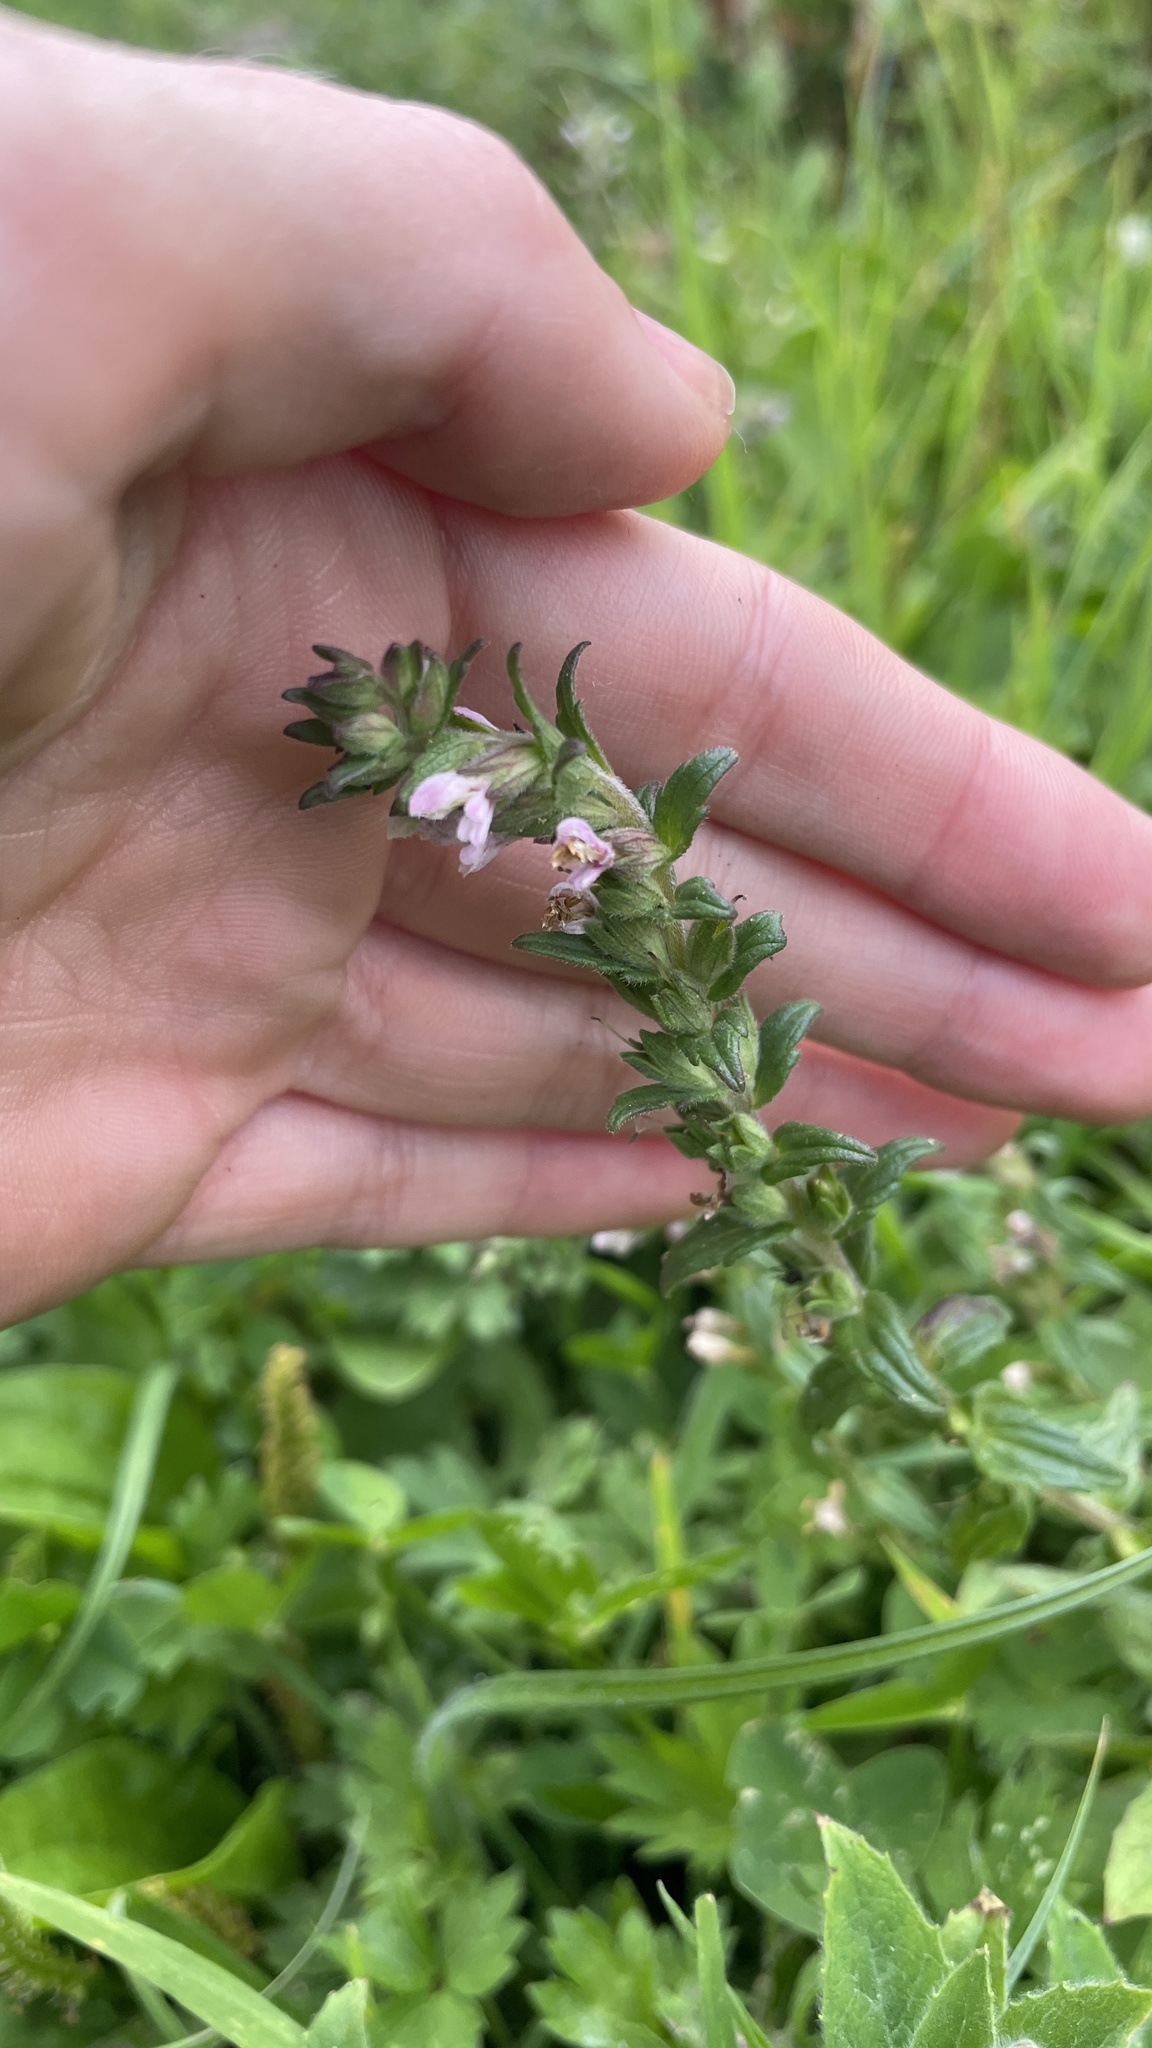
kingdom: Plantae
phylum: Tracheophyta
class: Magnoliopsida
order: Lamiales
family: Orobanchaceae
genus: Odontites
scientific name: Odontites vulgaris
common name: Broomrape
